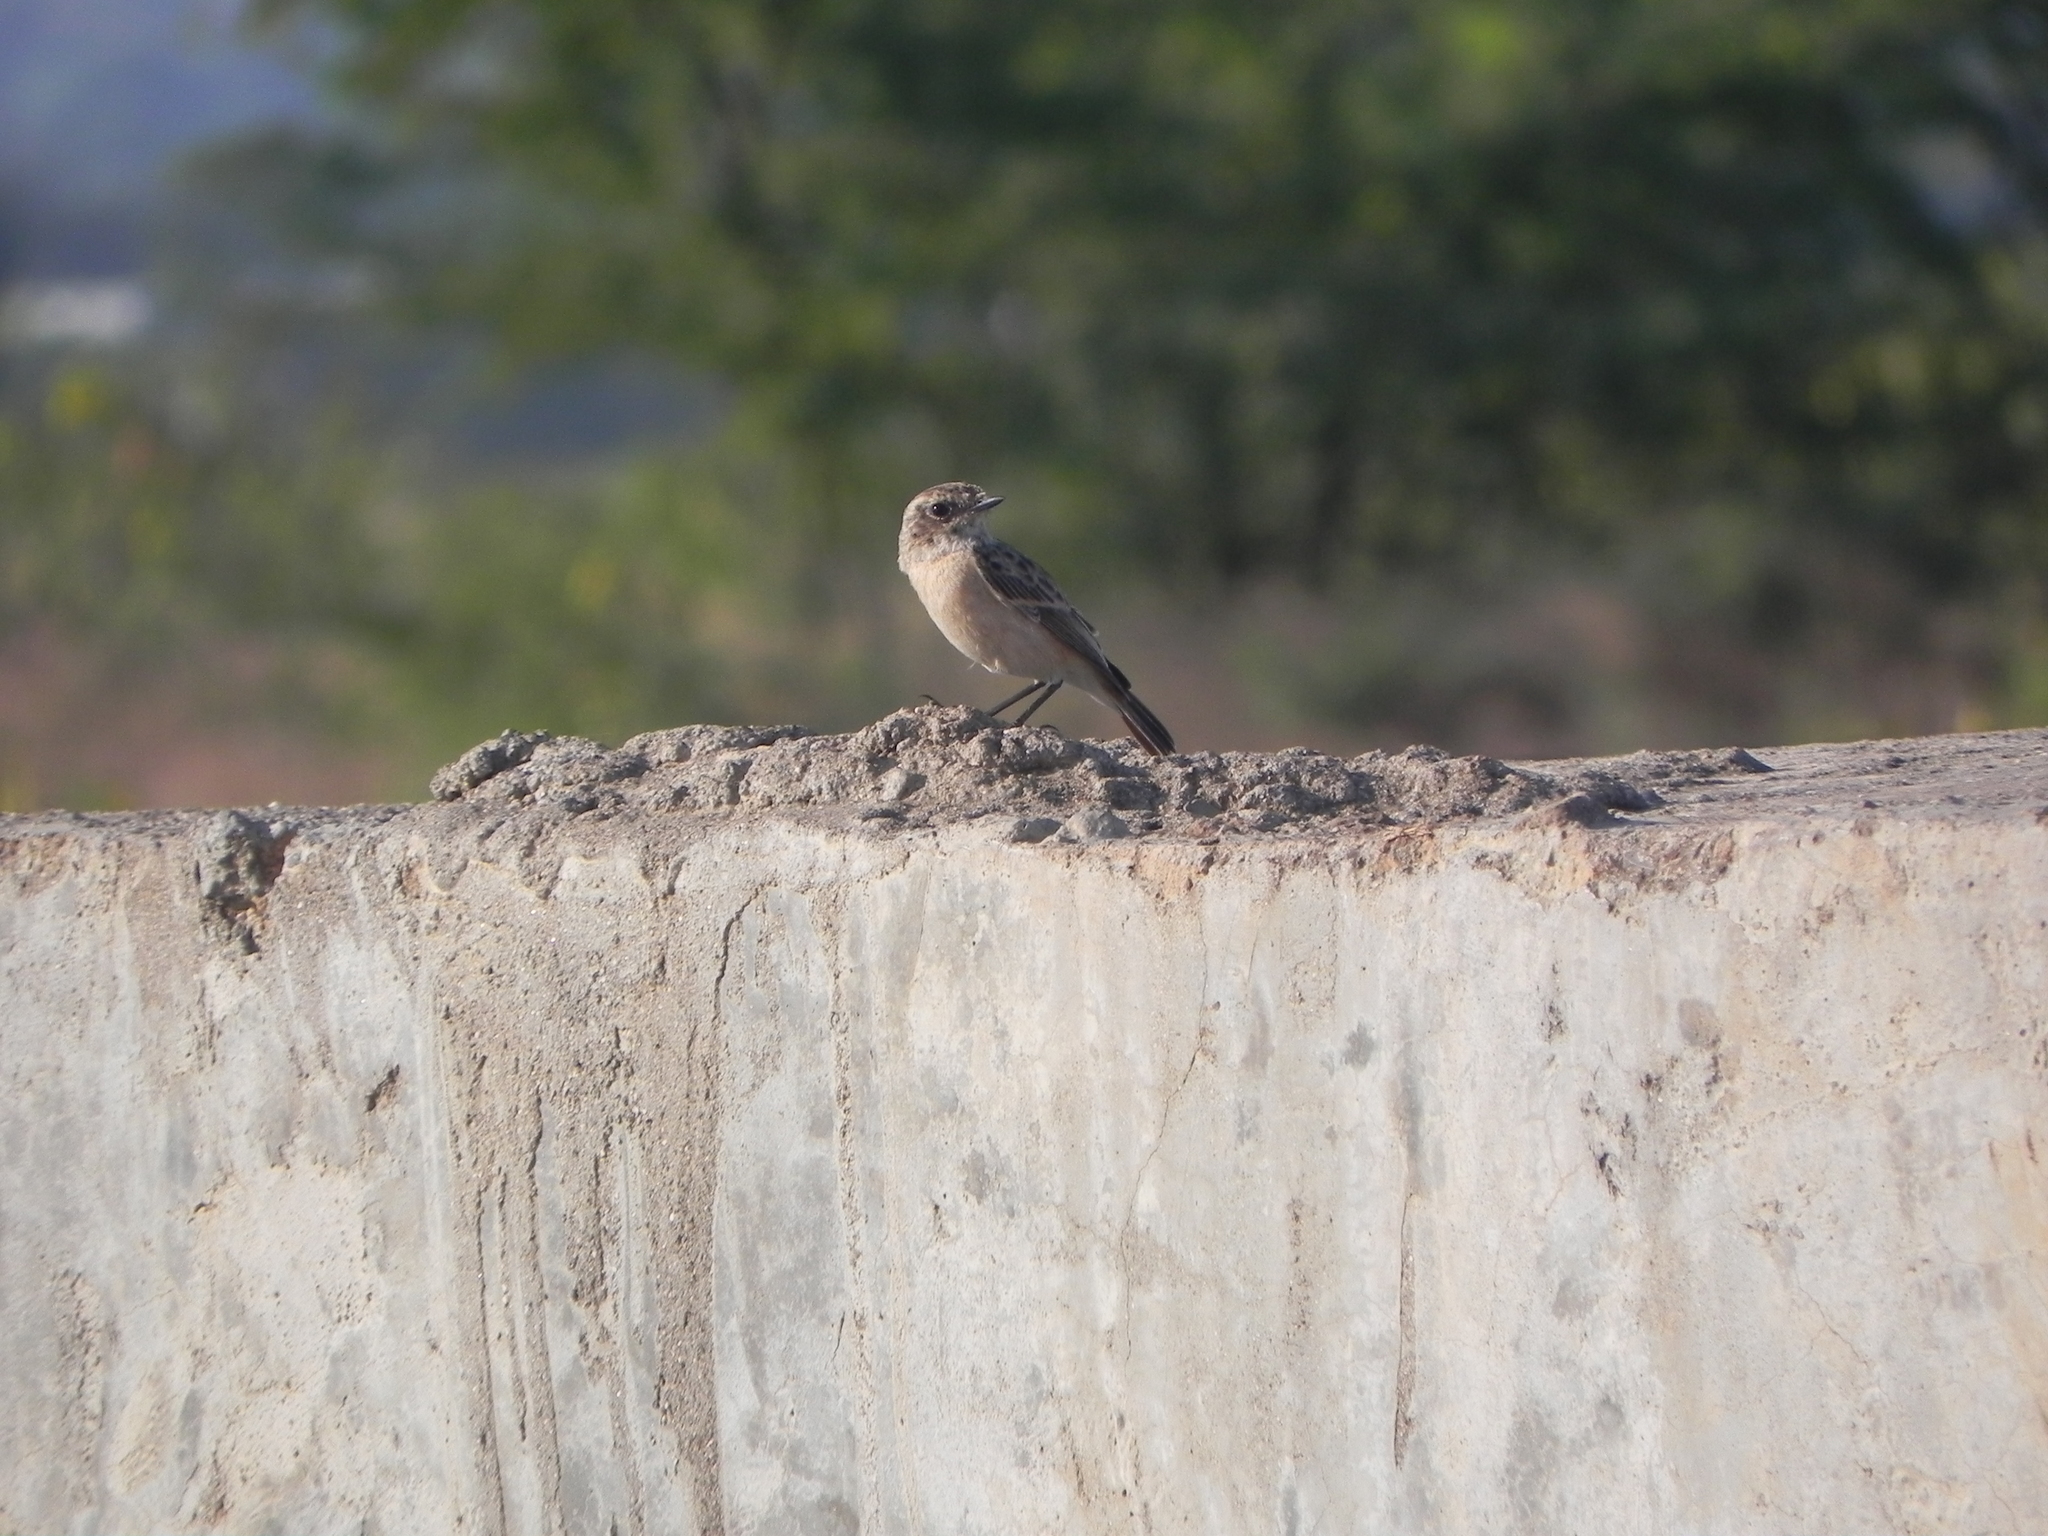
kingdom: Animalia
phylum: Chordata
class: Aves
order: Passeriformes
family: Muscicapidae
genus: Saxicola
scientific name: Saxicola maurus
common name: Siberian stonechat
